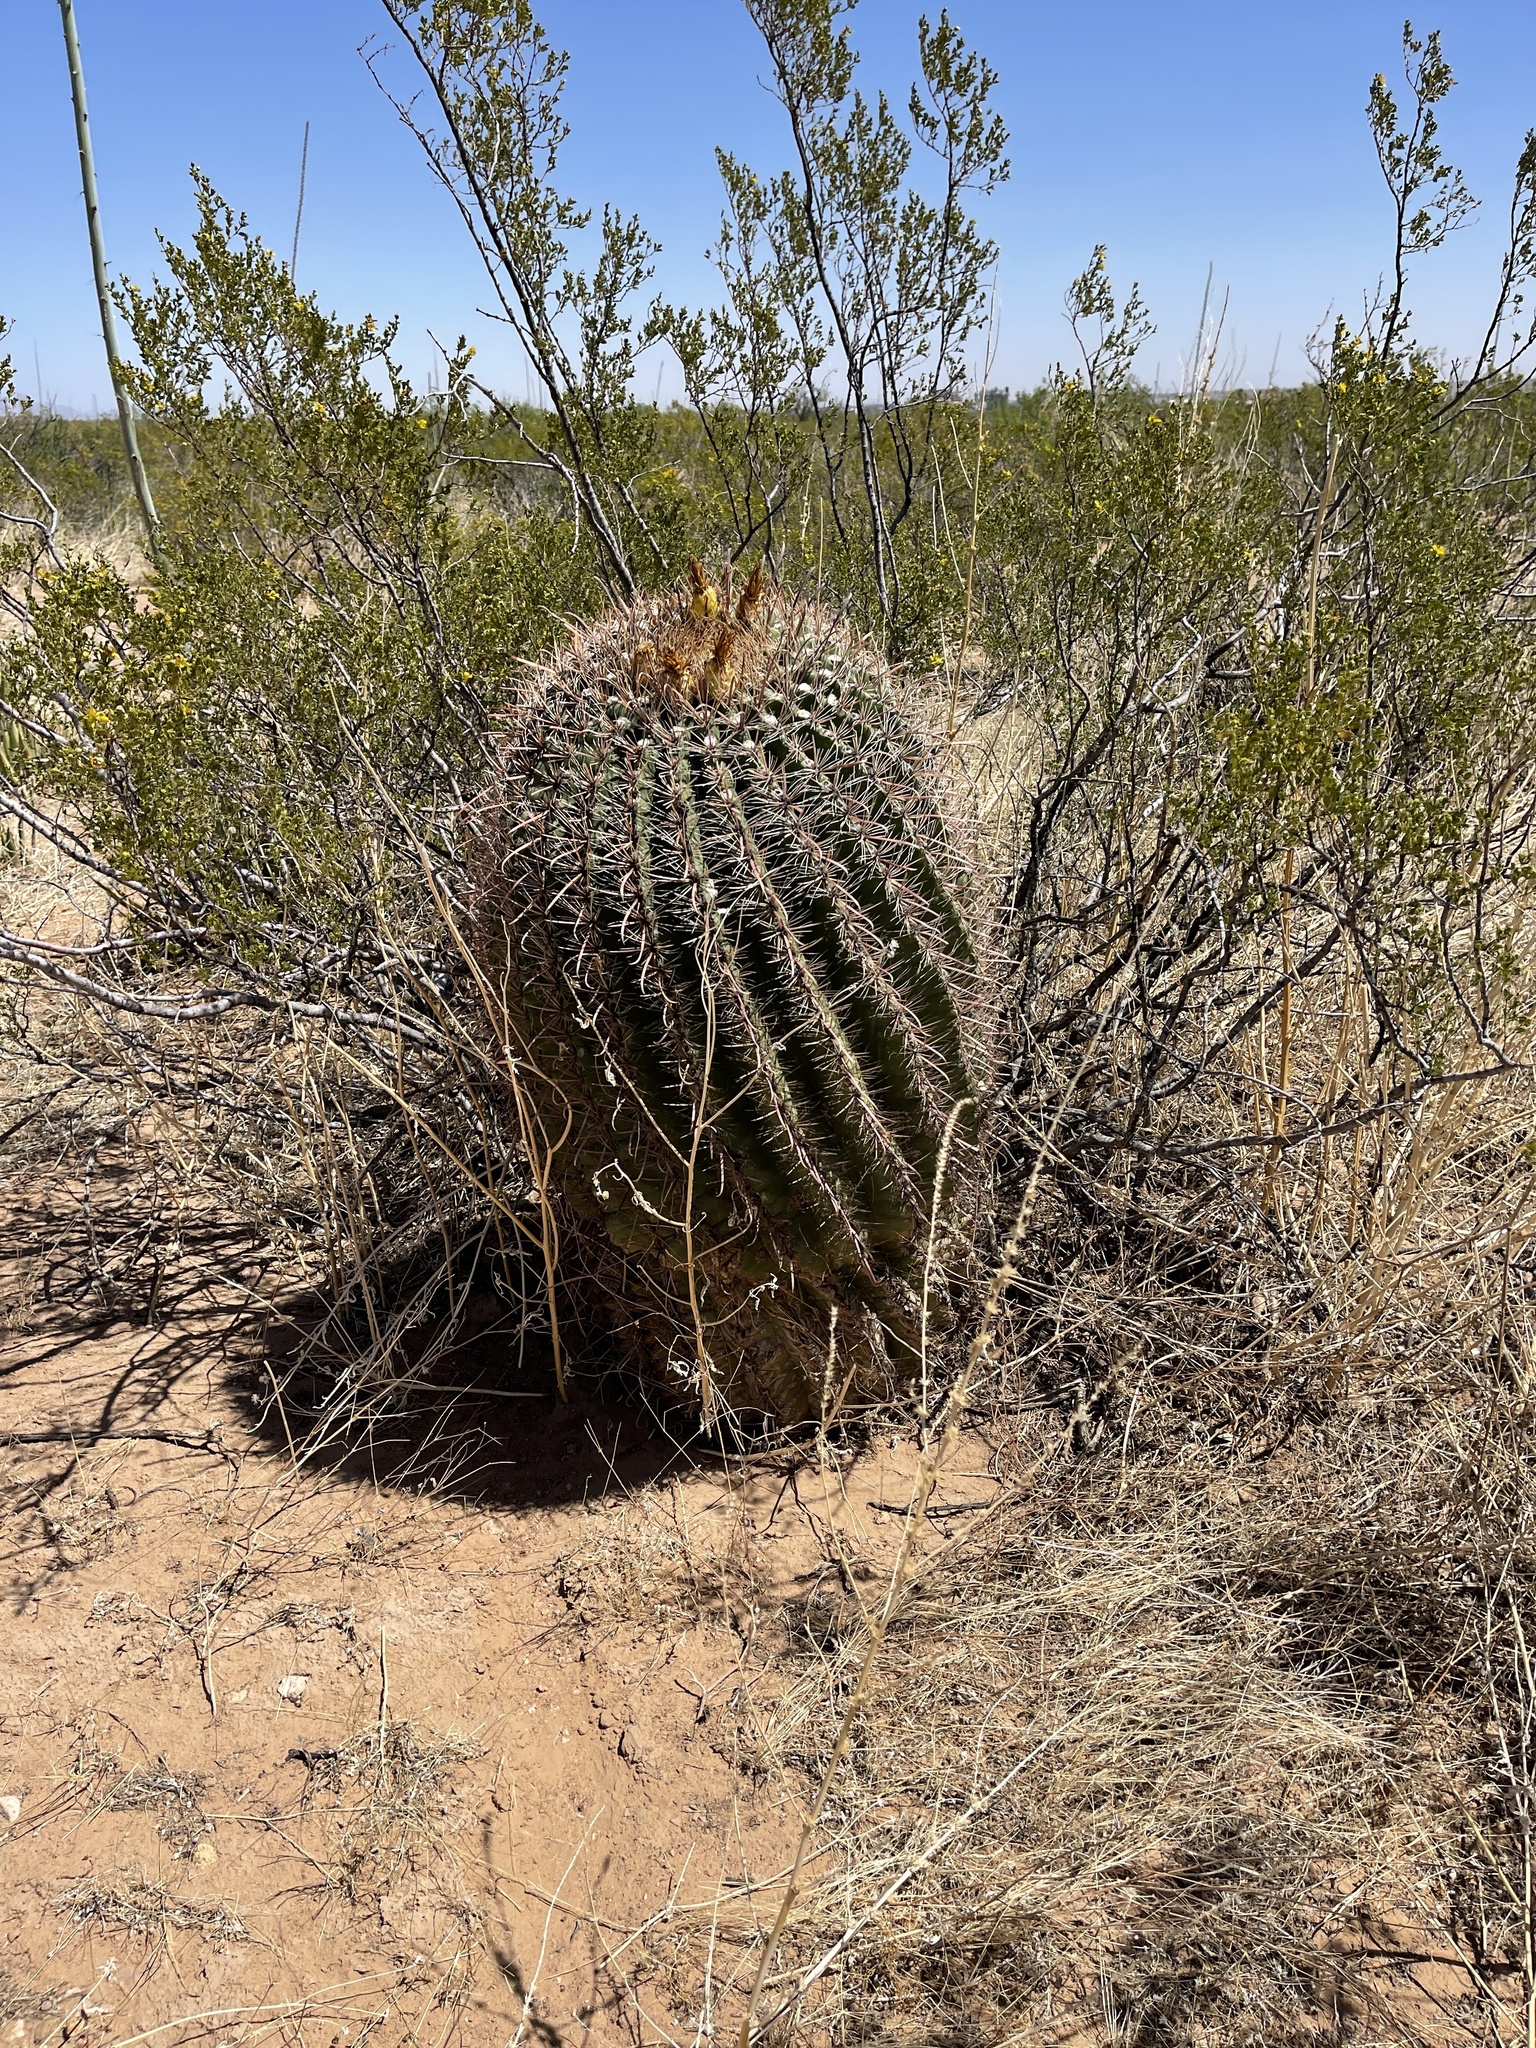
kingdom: Plantae
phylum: Tracheophyta
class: Magnoliopsida
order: Caryophyllales
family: Cactaceae
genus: Ferocactus
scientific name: Ferocactus wislizeni
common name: Candy barrel cactus
